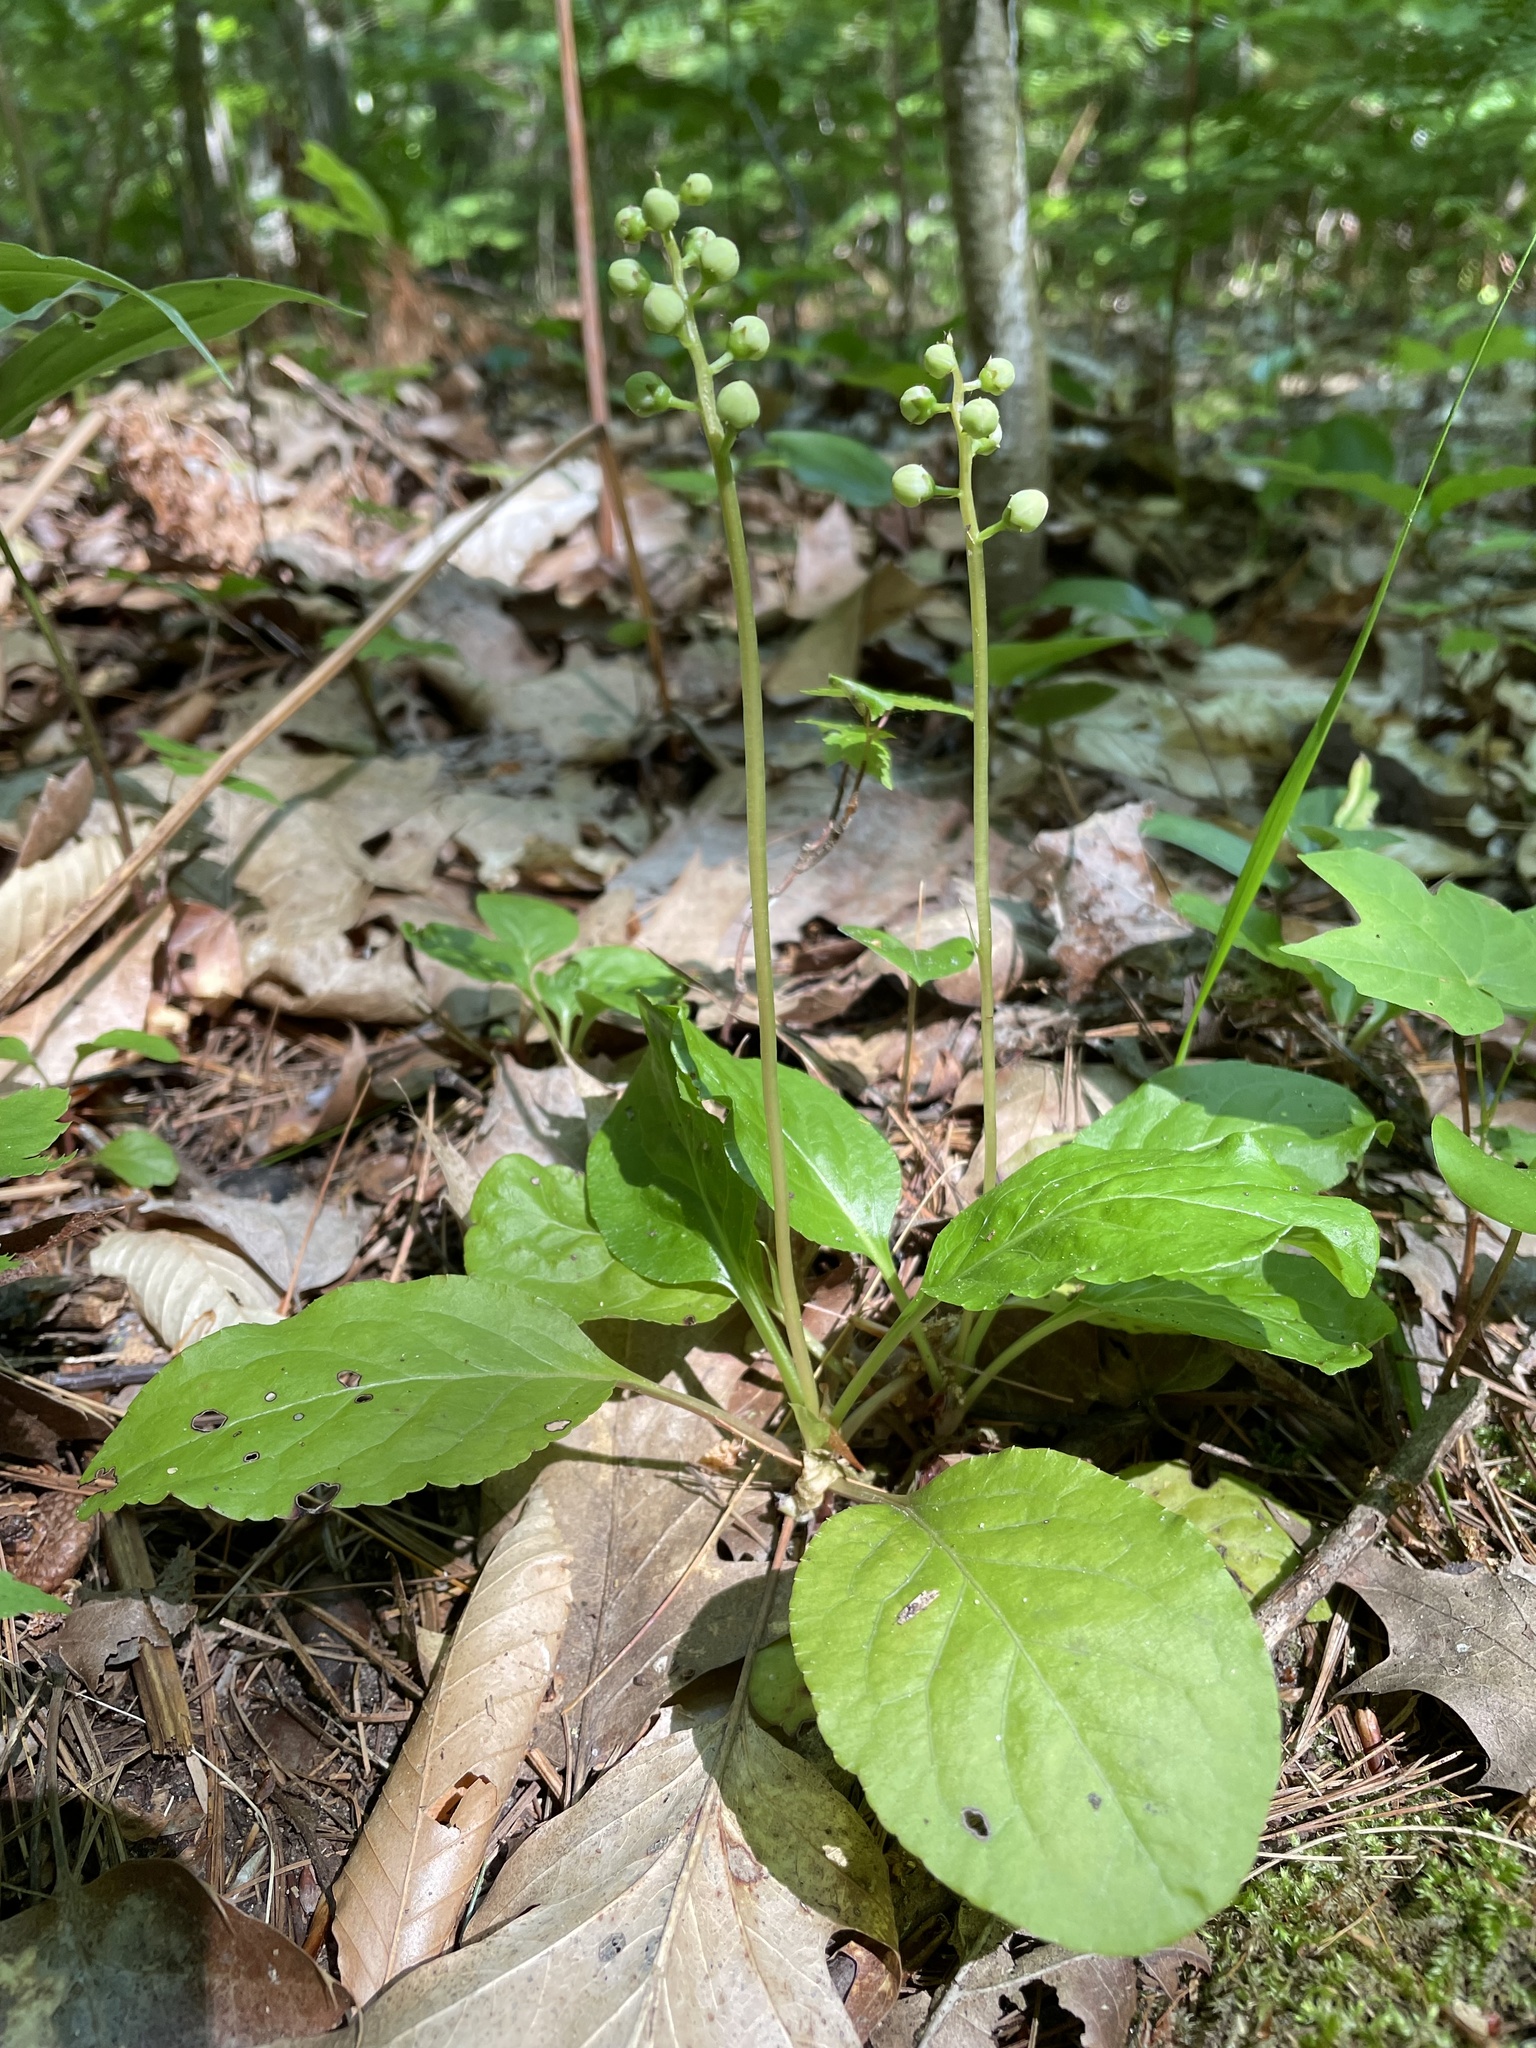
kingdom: Plantae
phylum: Tracheophyta
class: Magnoliopsida
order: Ericales
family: Ericaceae
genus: Pyrola
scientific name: Pyrola elliptica
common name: Shinleaf
